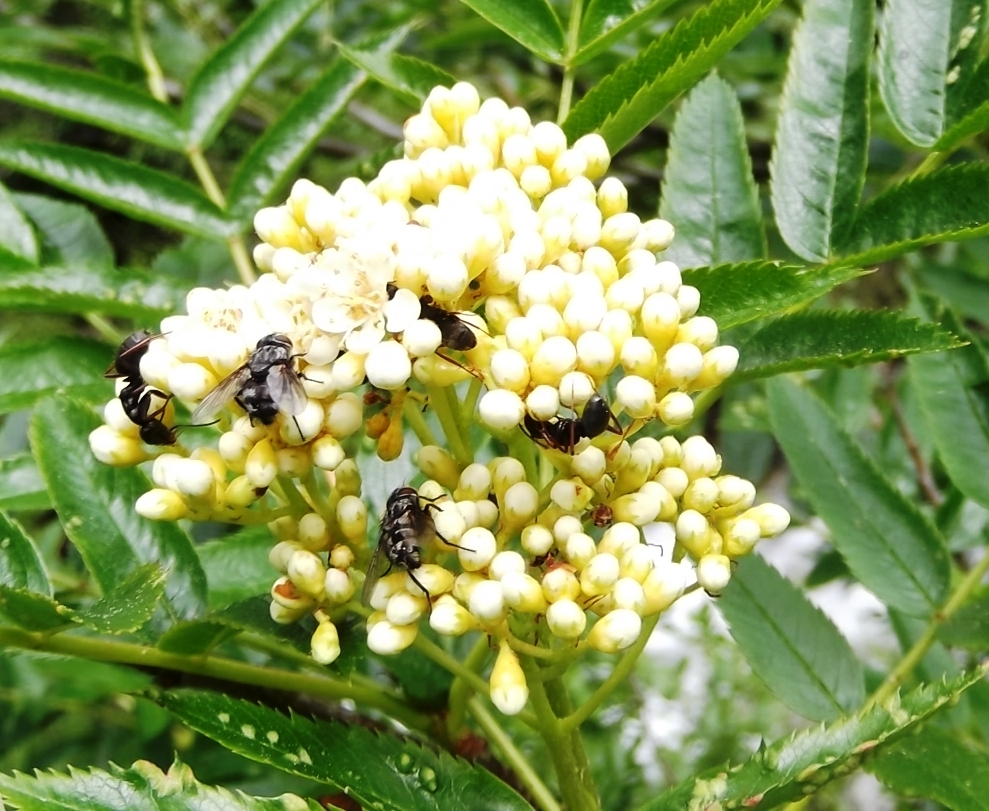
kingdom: Plantae
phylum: Tracheophyta
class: Magnoliopsida
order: Rosales
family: Rosaceae
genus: Sorbus
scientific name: Sorbus scopulina
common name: Greene's mountain-ash
